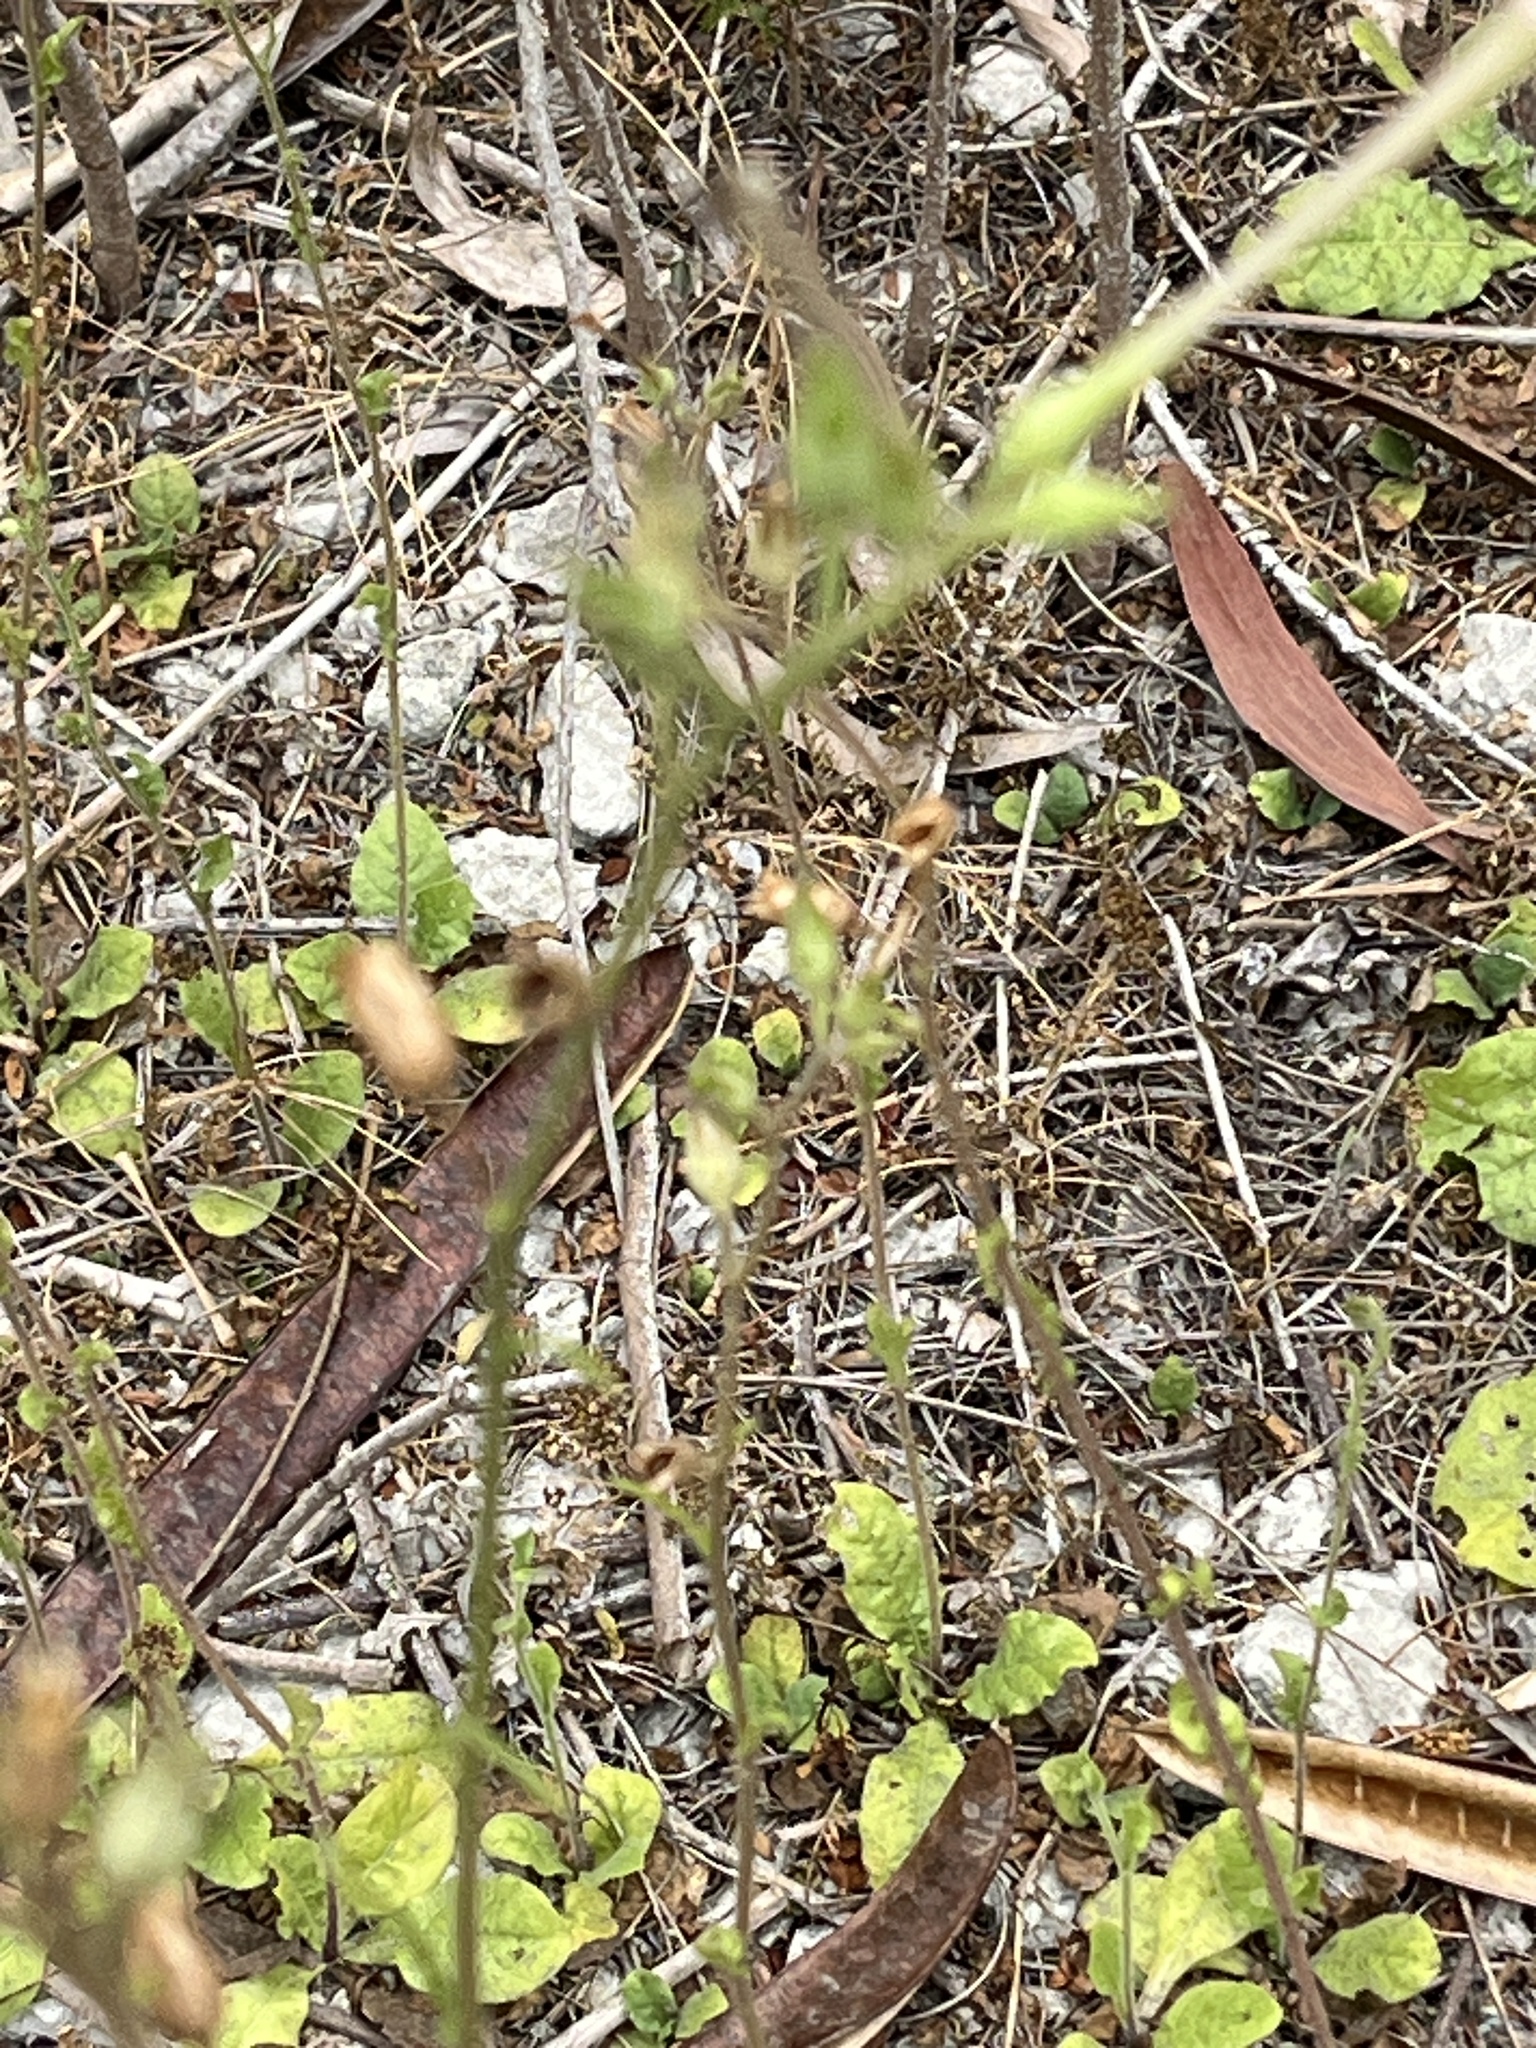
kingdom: Plantae
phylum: Tracheophyta
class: Magnoliopsida
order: Solanales
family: Solanaceae
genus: Nicotiana
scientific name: Nicotiana plumbaginifolia
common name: Tex-mex tobacco
